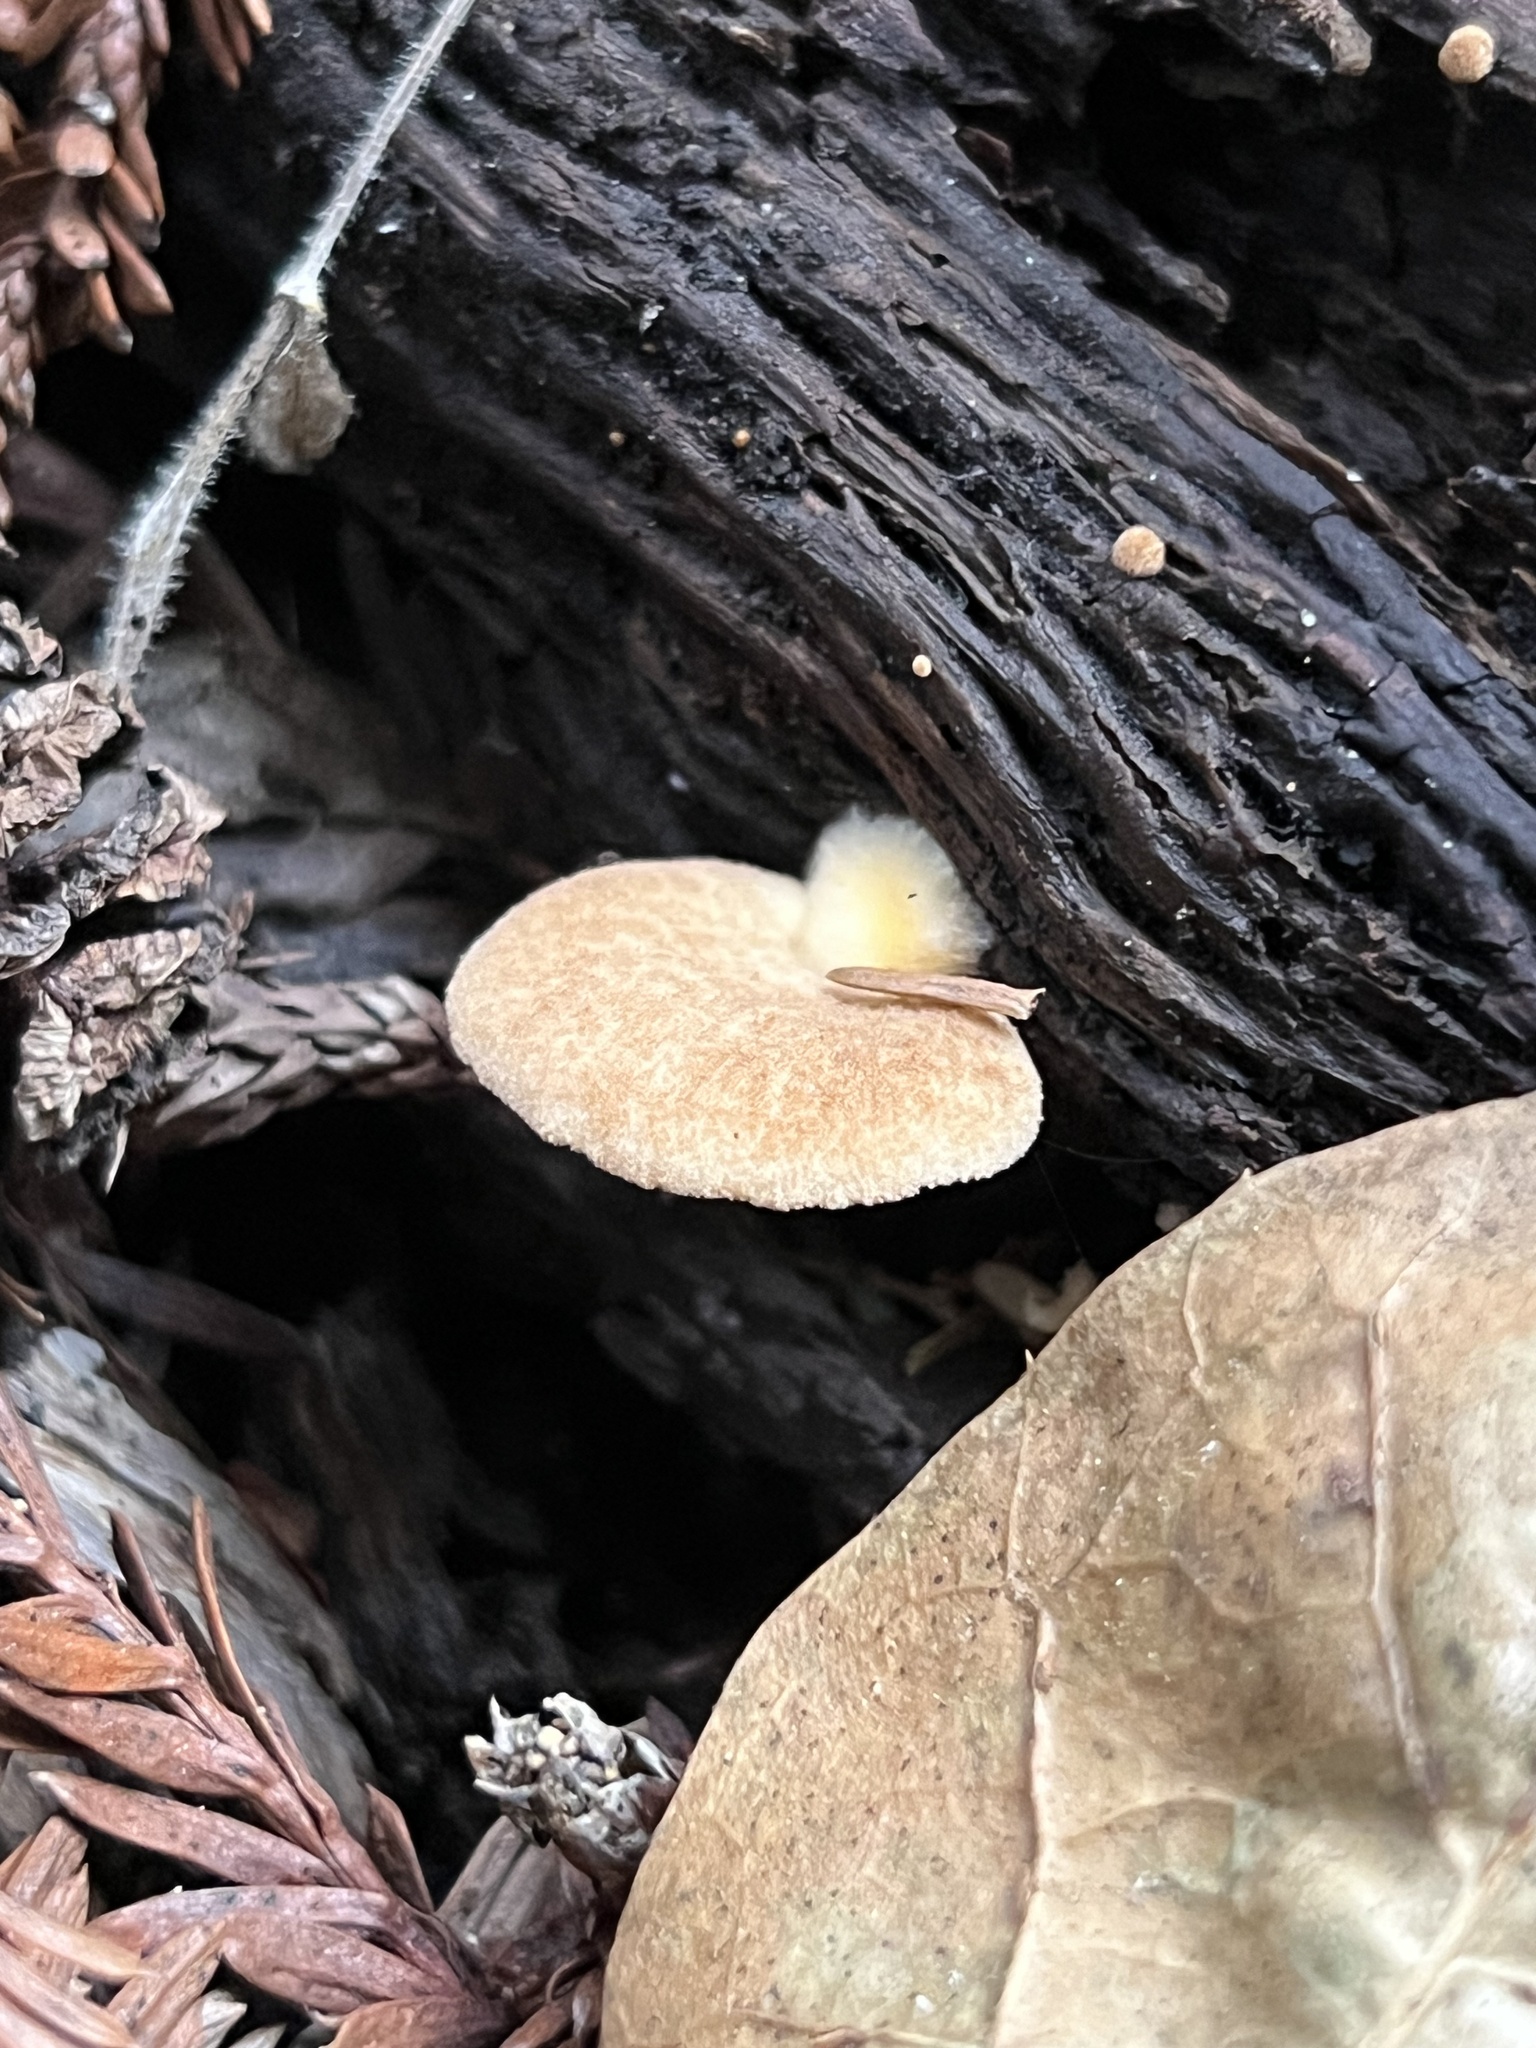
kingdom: Fungi
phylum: Basidiomycota
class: Agaricomycetes
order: Agaricales
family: Crepidotaceae
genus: Crepidotus
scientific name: Crepidotus crocophyllus
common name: Saffron oysterling
